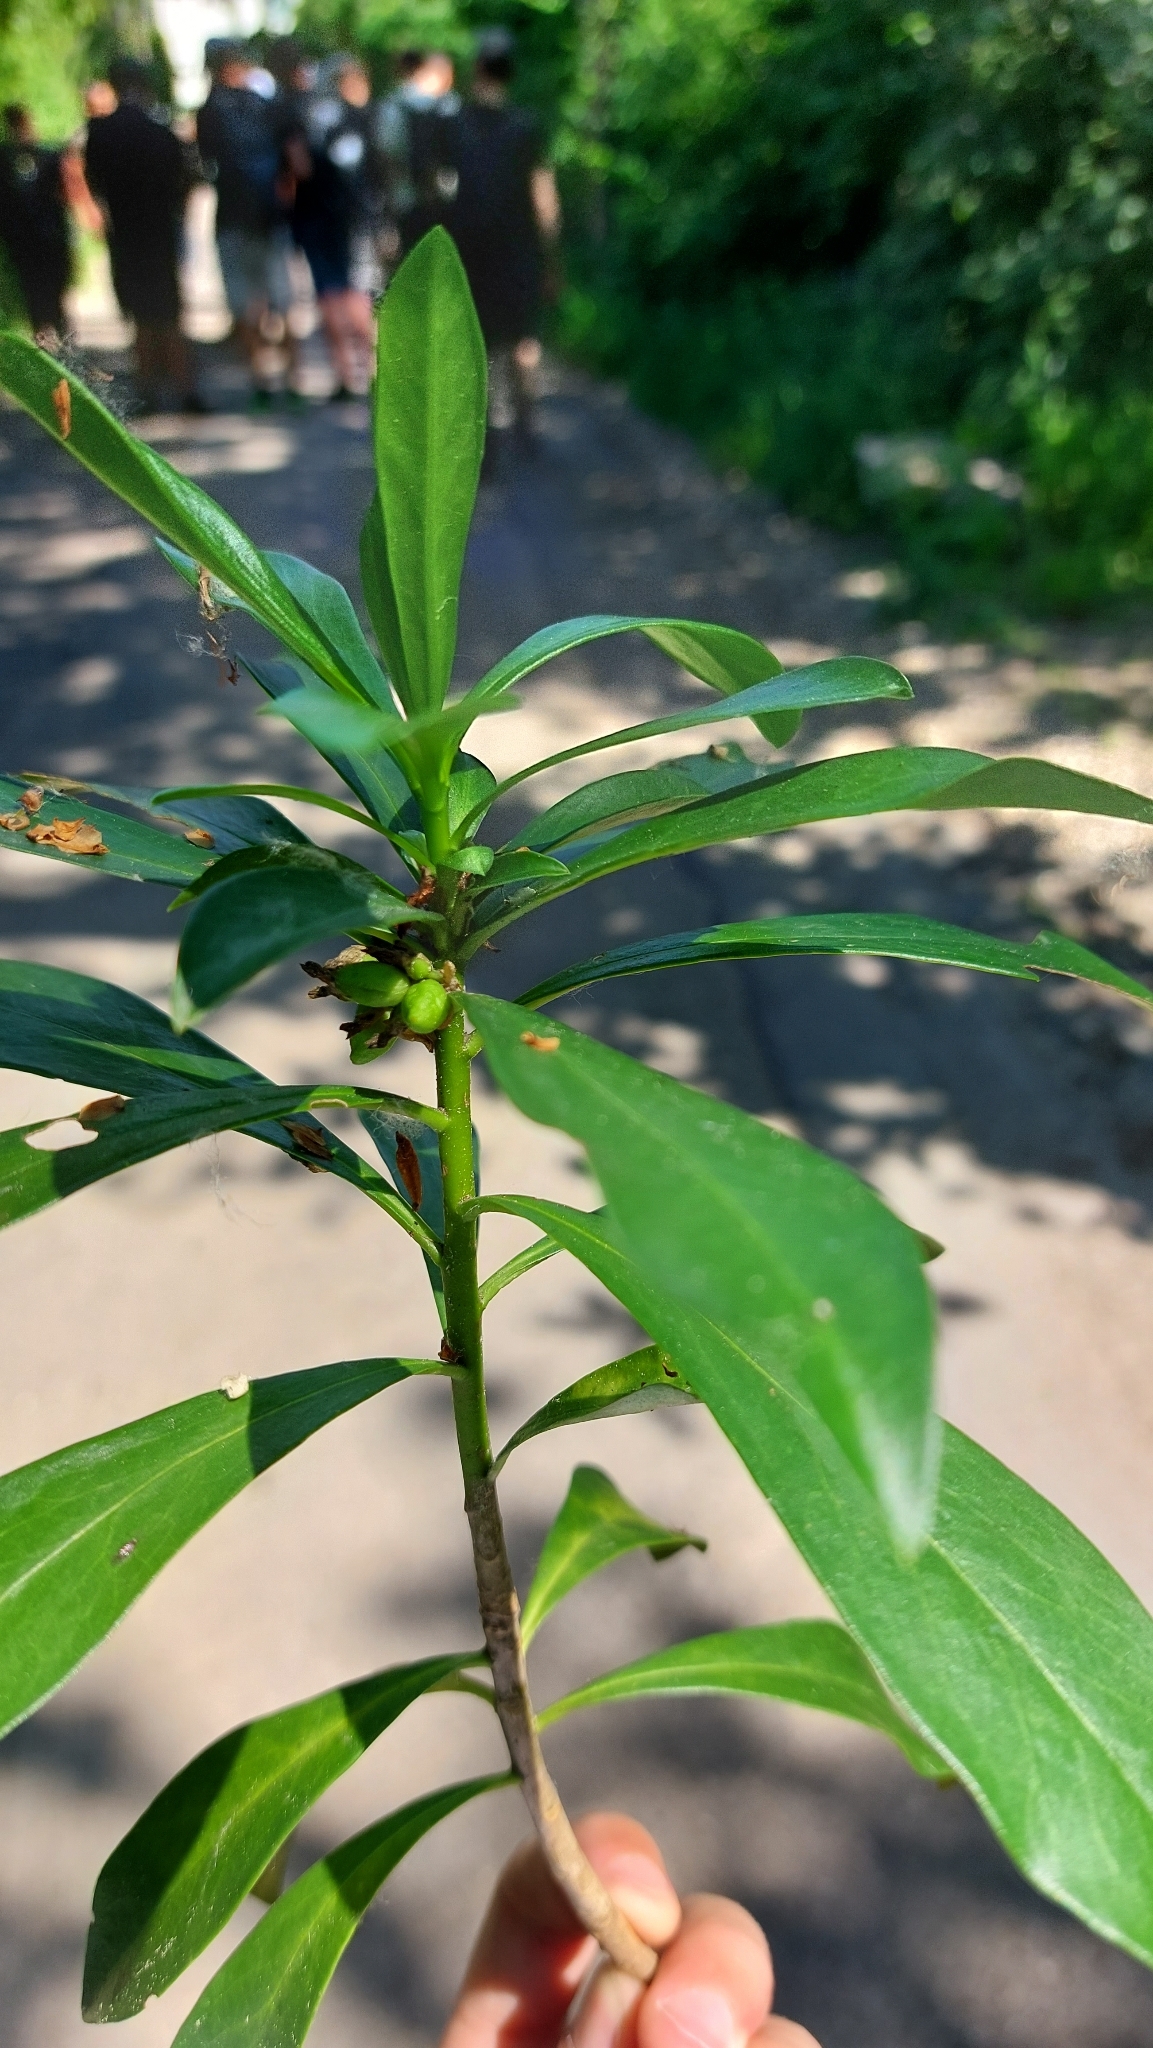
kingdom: Plantae
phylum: Tracheophyta
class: Magnoliopsida
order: Malvales
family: Thymelaeaceae
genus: Daphne
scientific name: Daphne laureola
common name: Spurge-laurel
